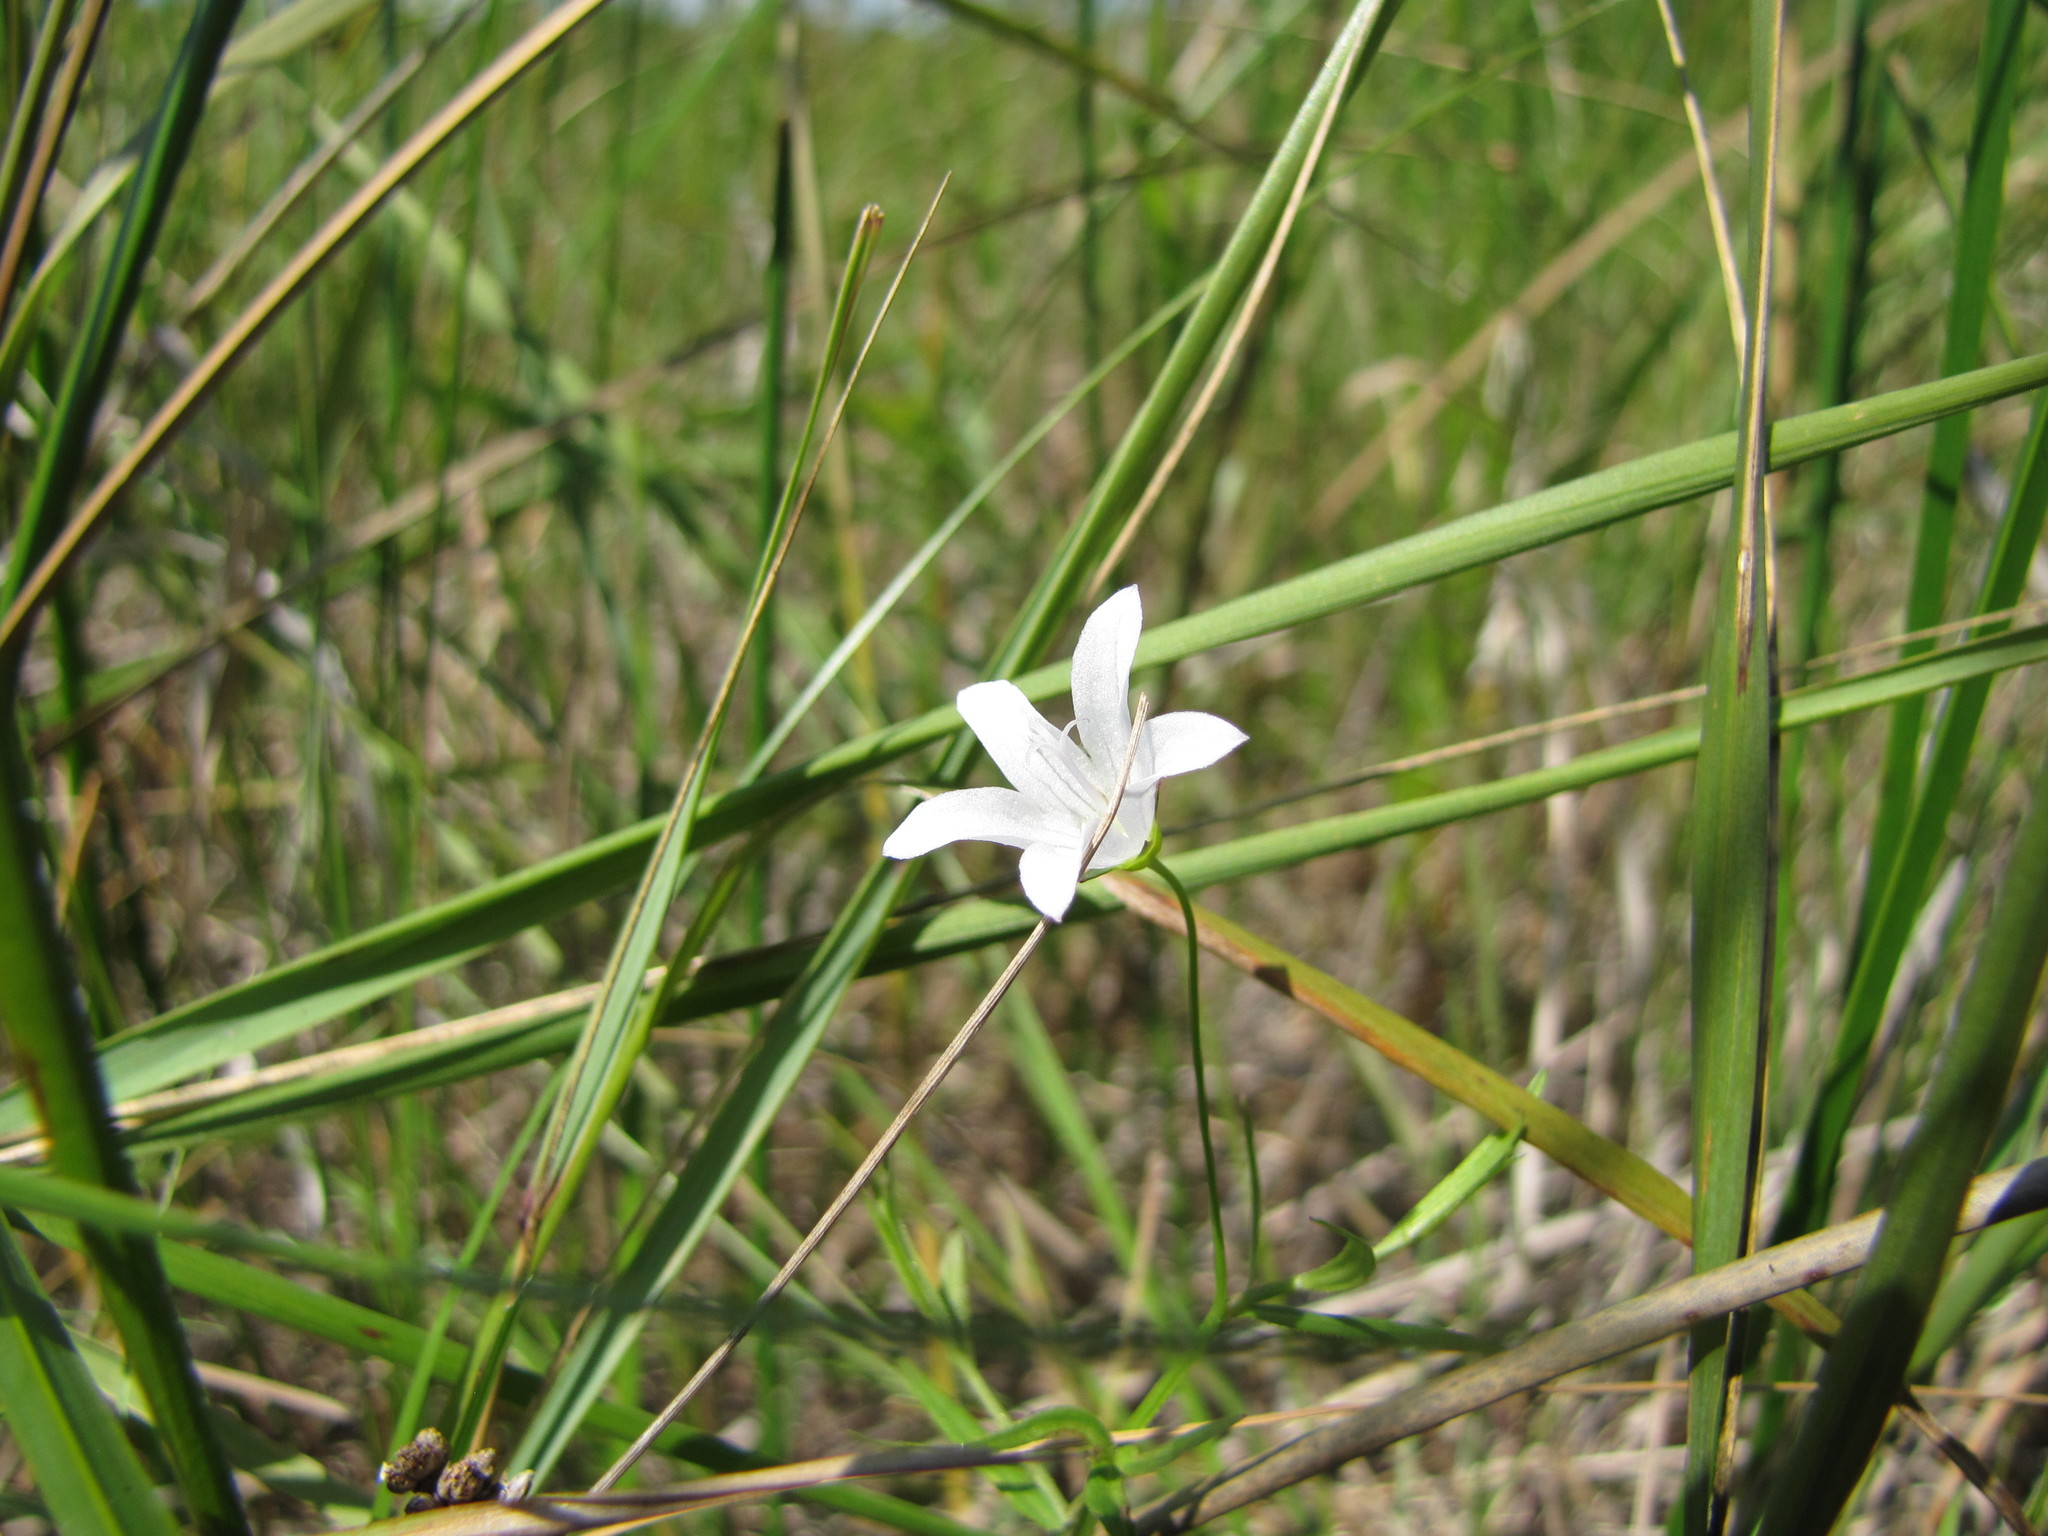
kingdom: Plantae
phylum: Tracheophyta
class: Magnoliopsida
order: Asterales
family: Campanulaceae
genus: Palustricodon
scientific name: Palustricodon aparinoides
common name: Bedstraw bellflower
